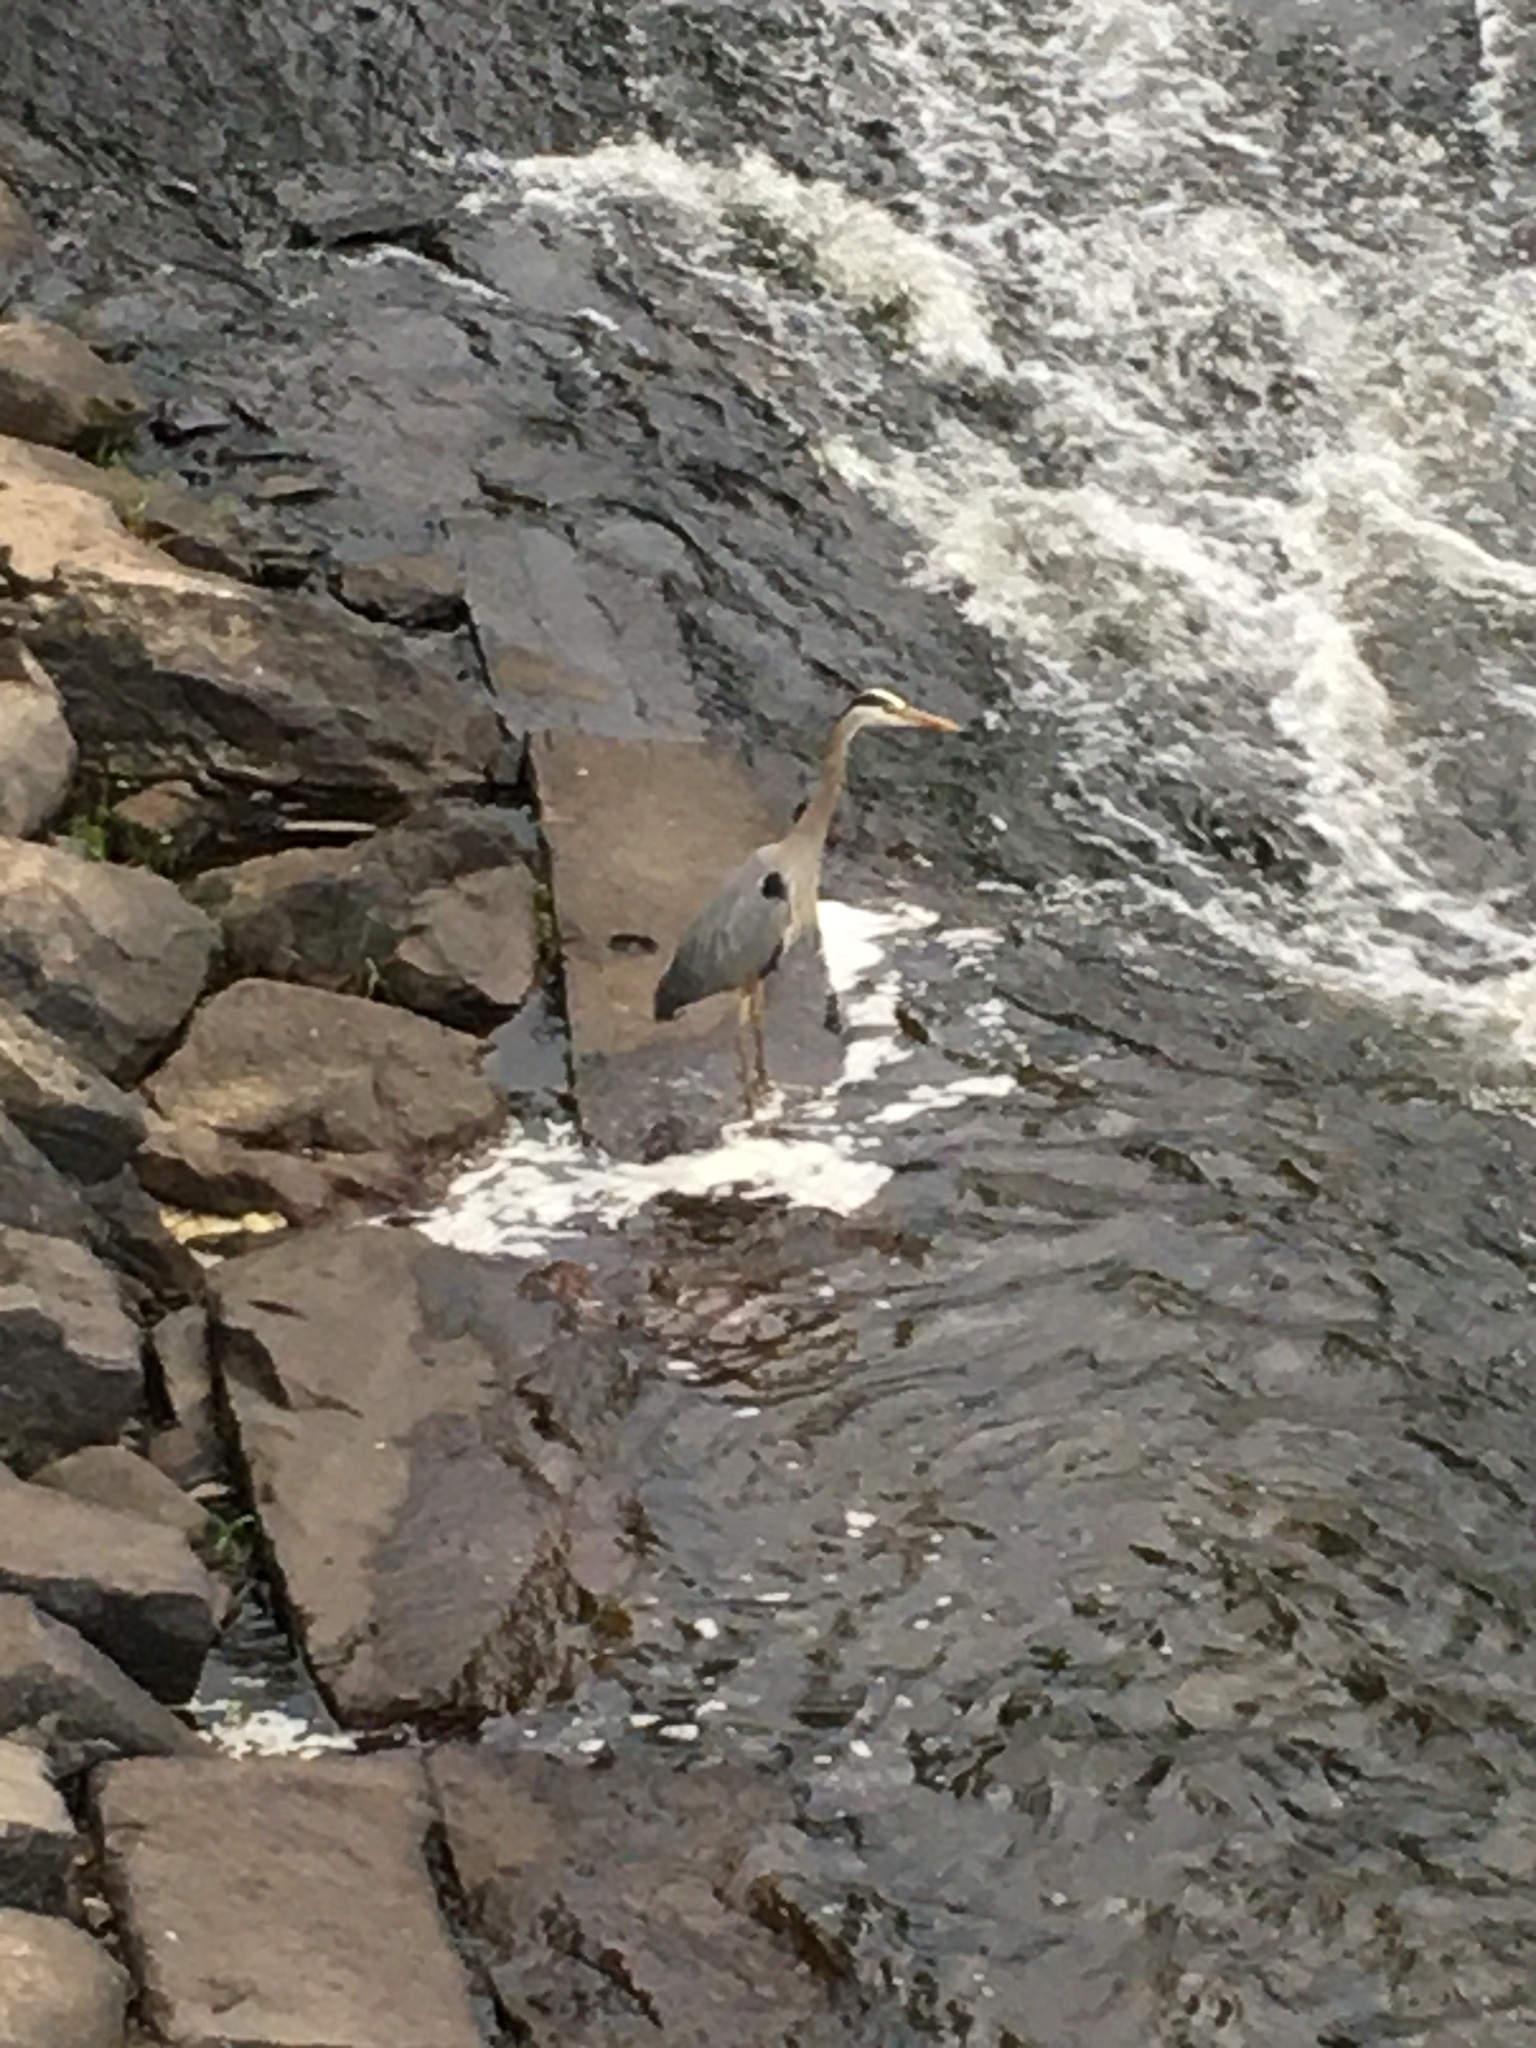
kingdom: Animalia
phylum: Chordata
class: Aves
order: Pelecaniformes
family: Ardeidae
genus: Ardea
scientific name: Ardea herodias
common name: Great blue heron
